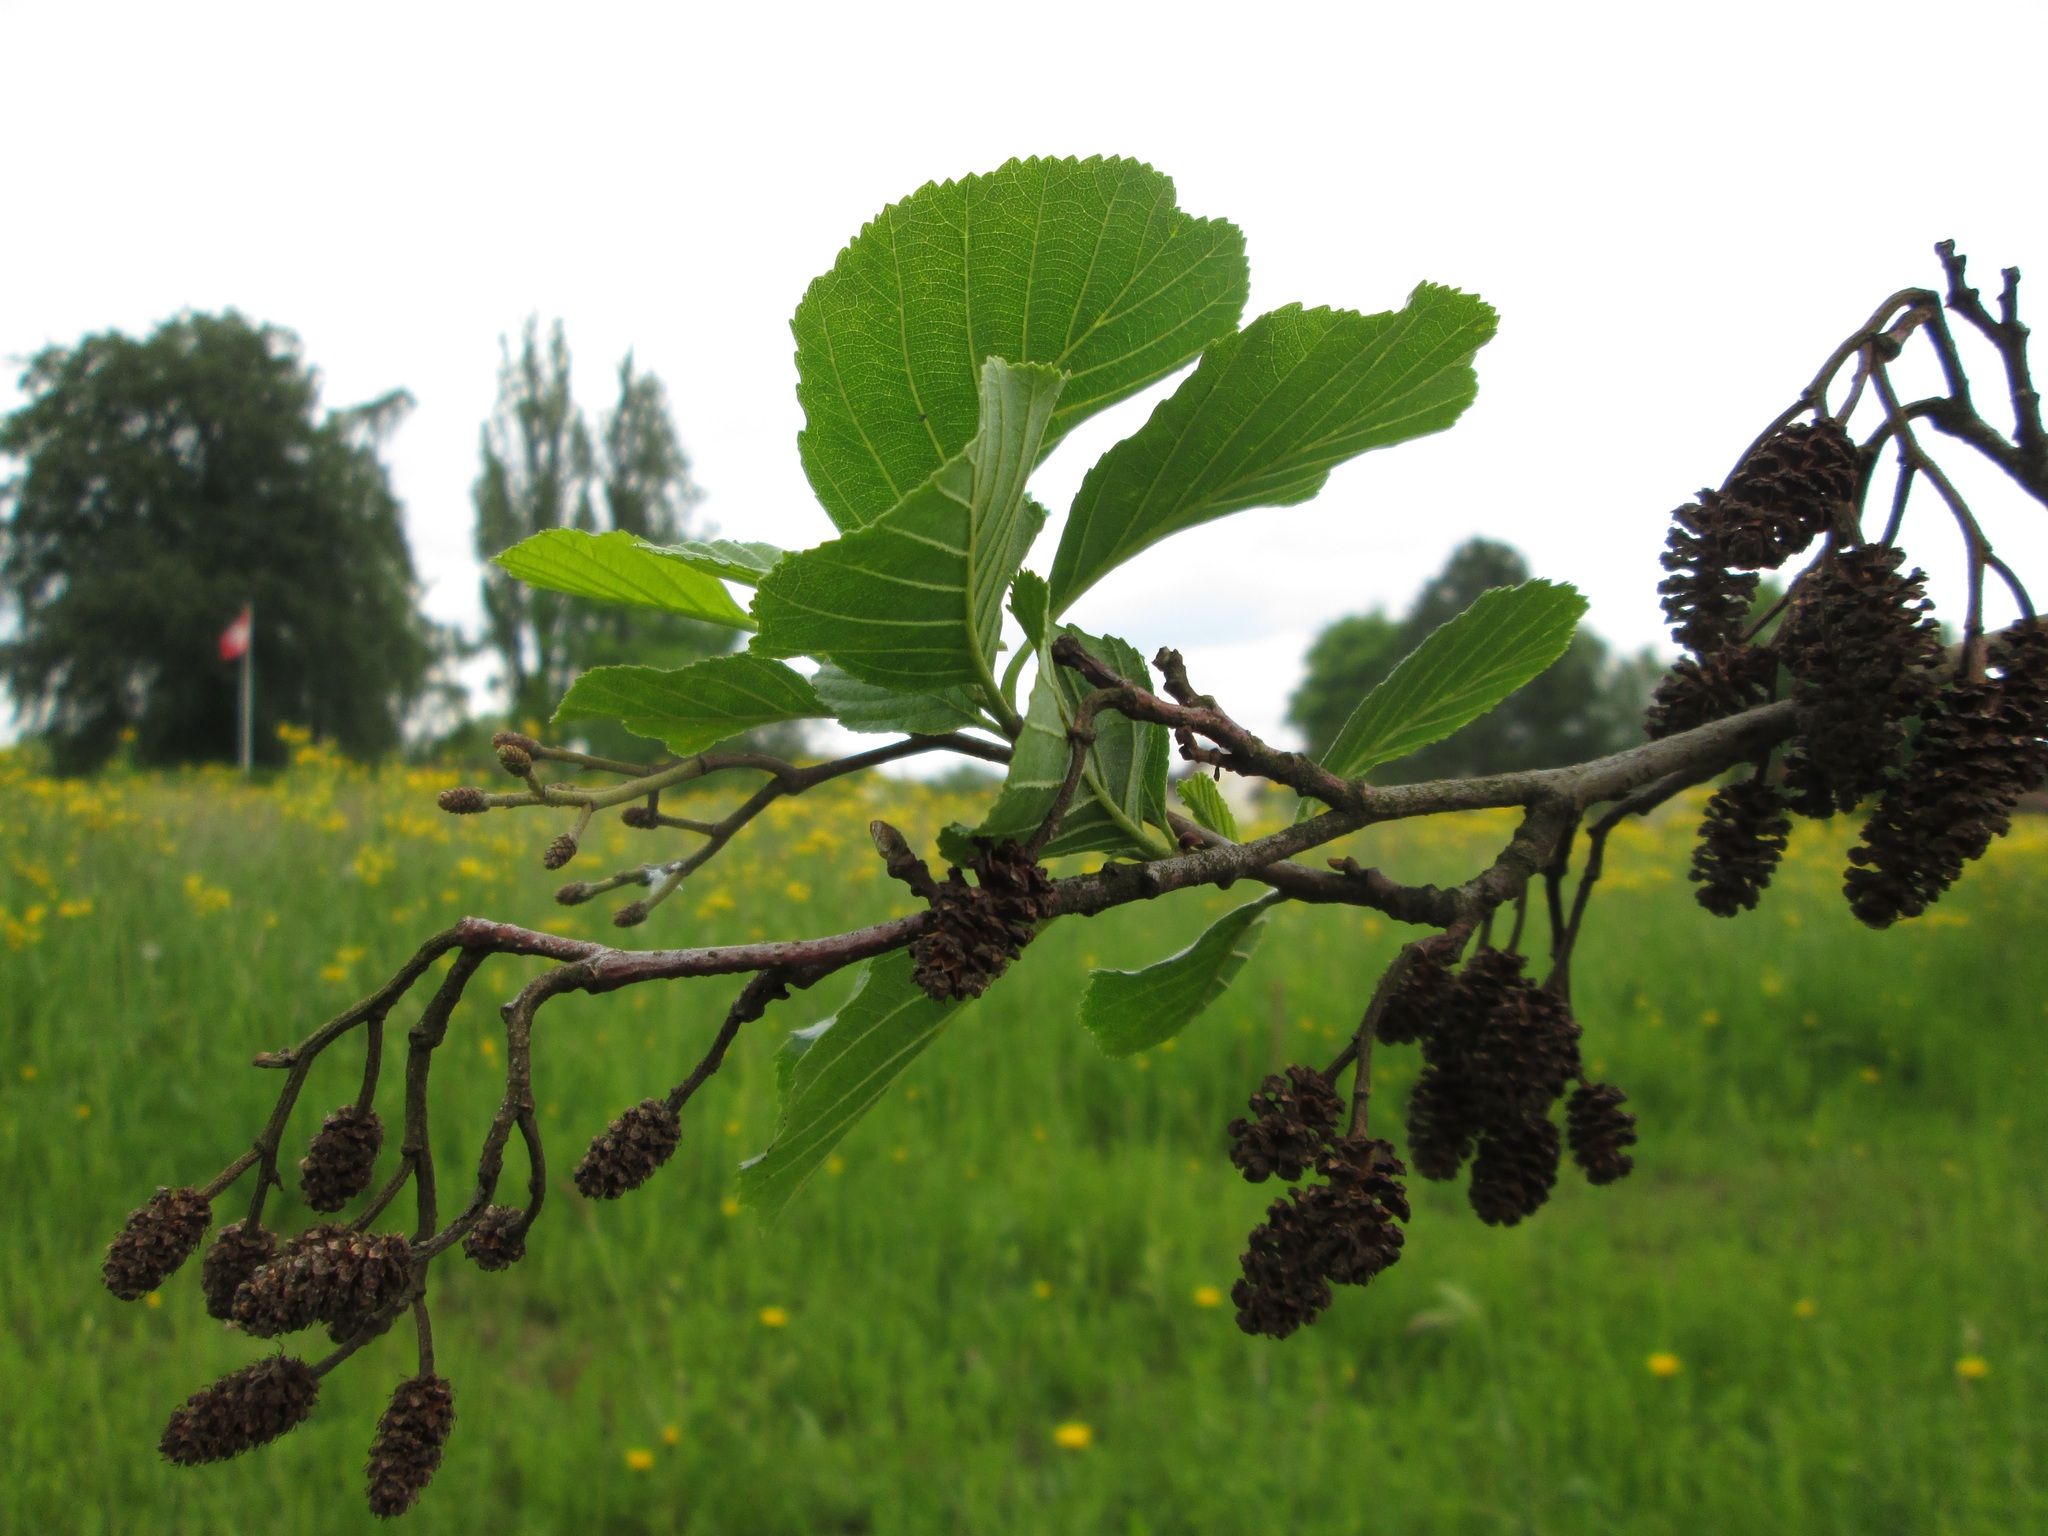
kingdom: Plantae
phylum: Tracheophyta
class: Magnoliopsida
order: Fagales
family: Betulaceae
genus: Alnus
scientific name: Alnus glutinosa
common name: Black alder
